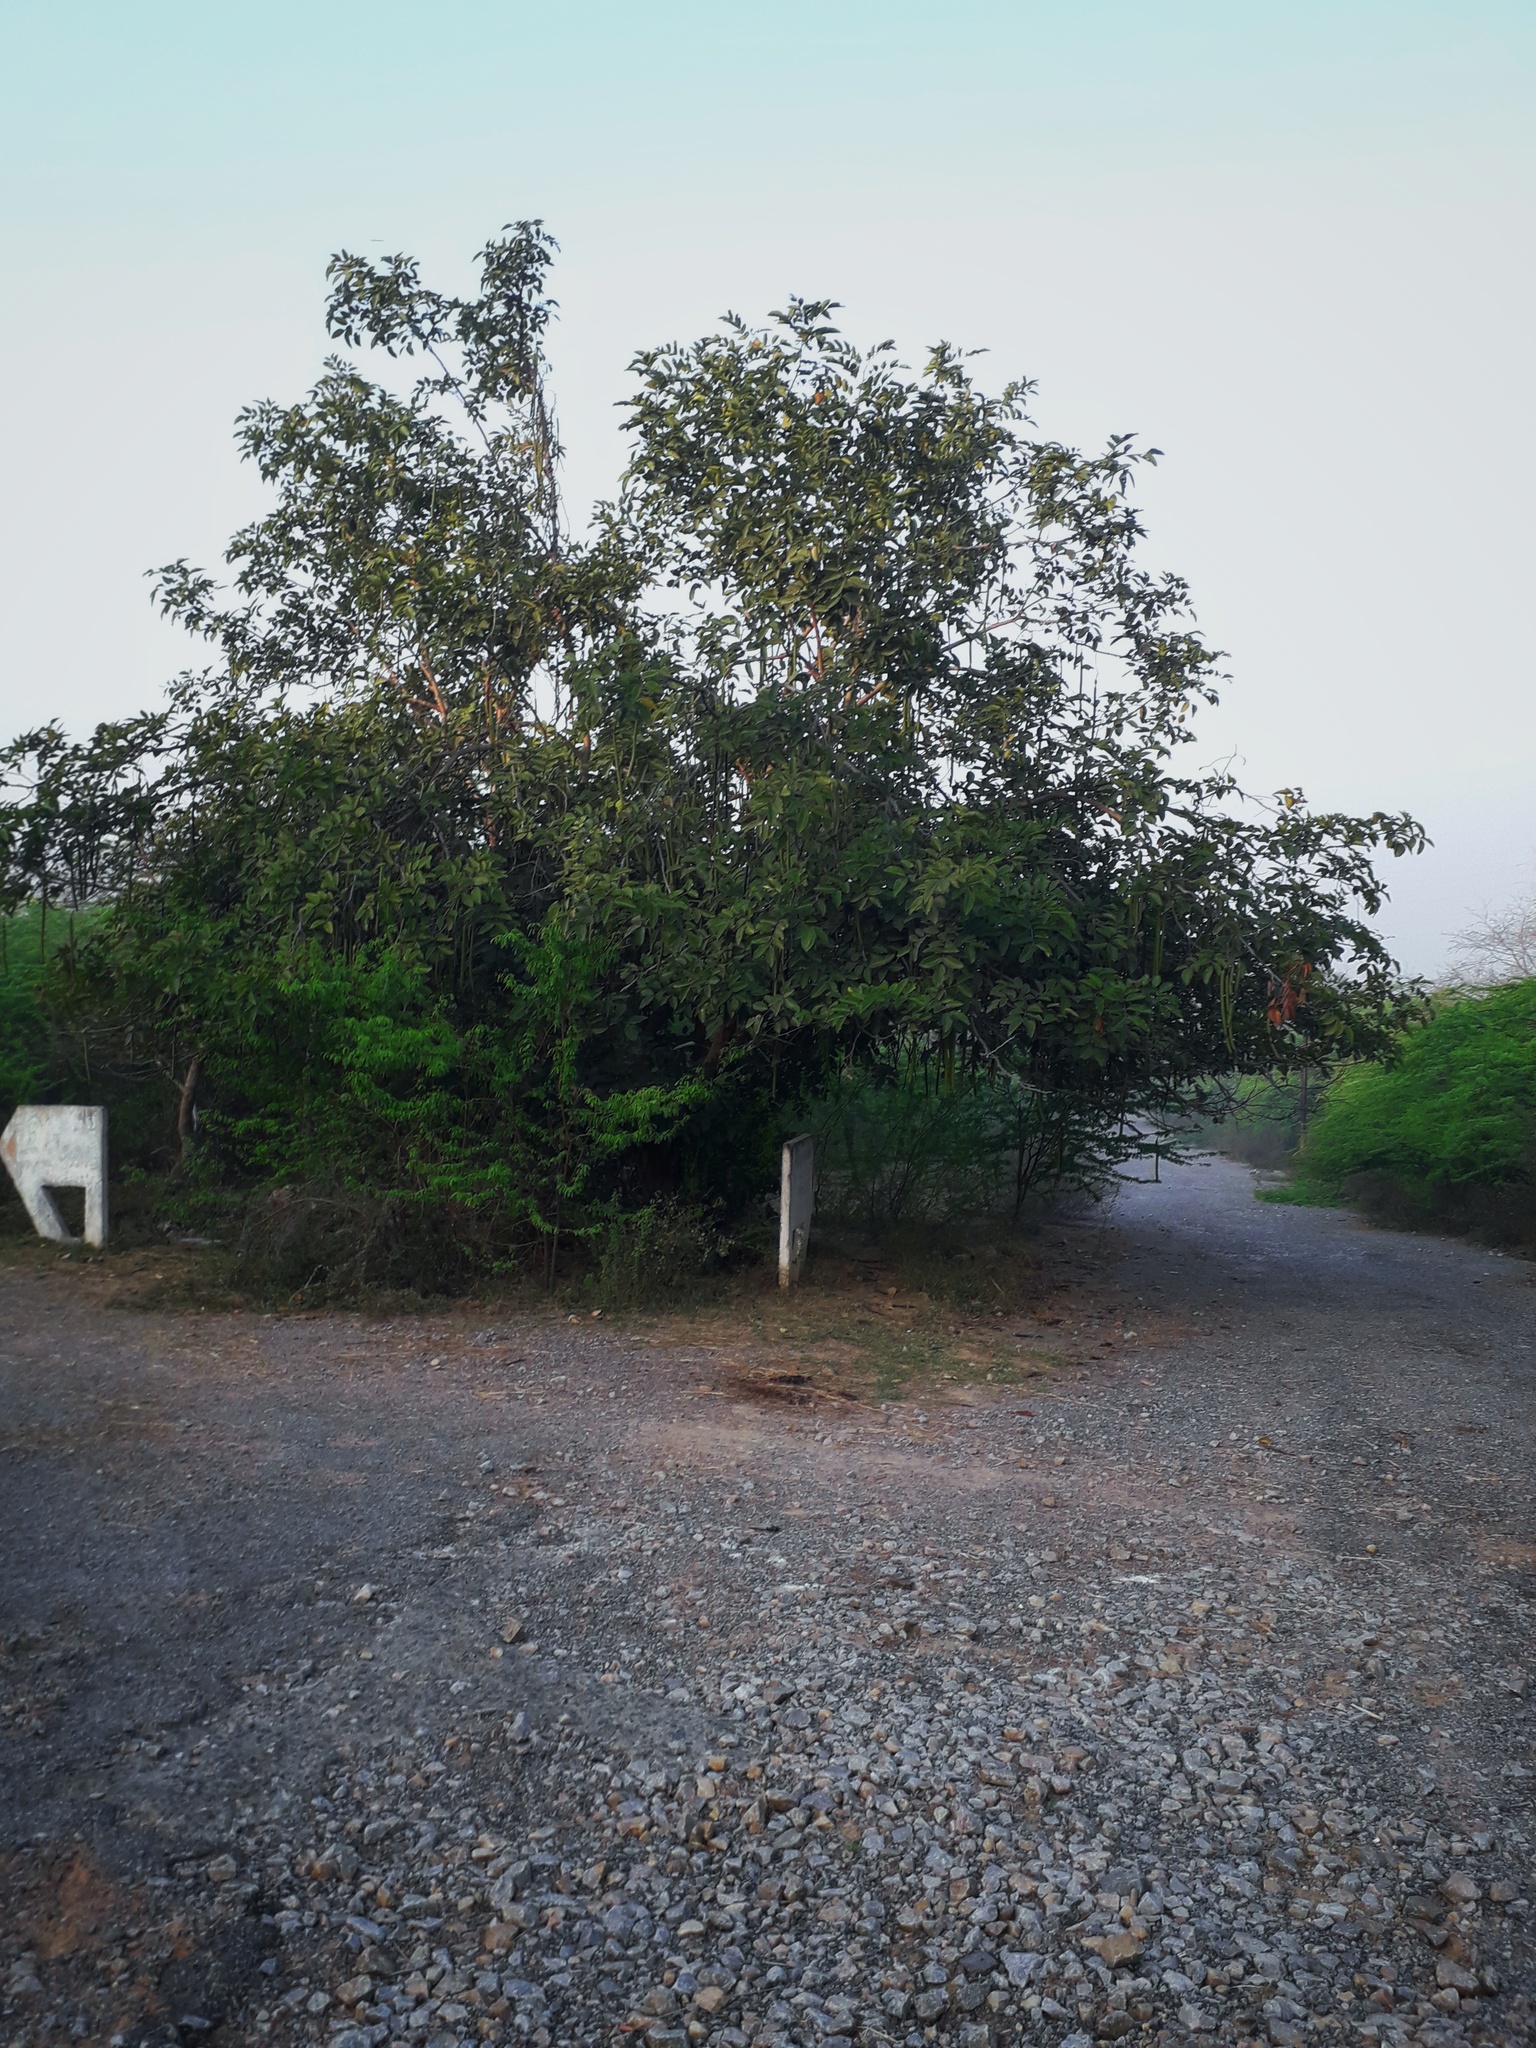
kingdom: Plantae
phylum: Tracheophyta
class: Magnoliopsida
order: Fabales
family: Fabaceae
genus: Cassia
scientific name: Cassia fistula
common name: Golden shower
